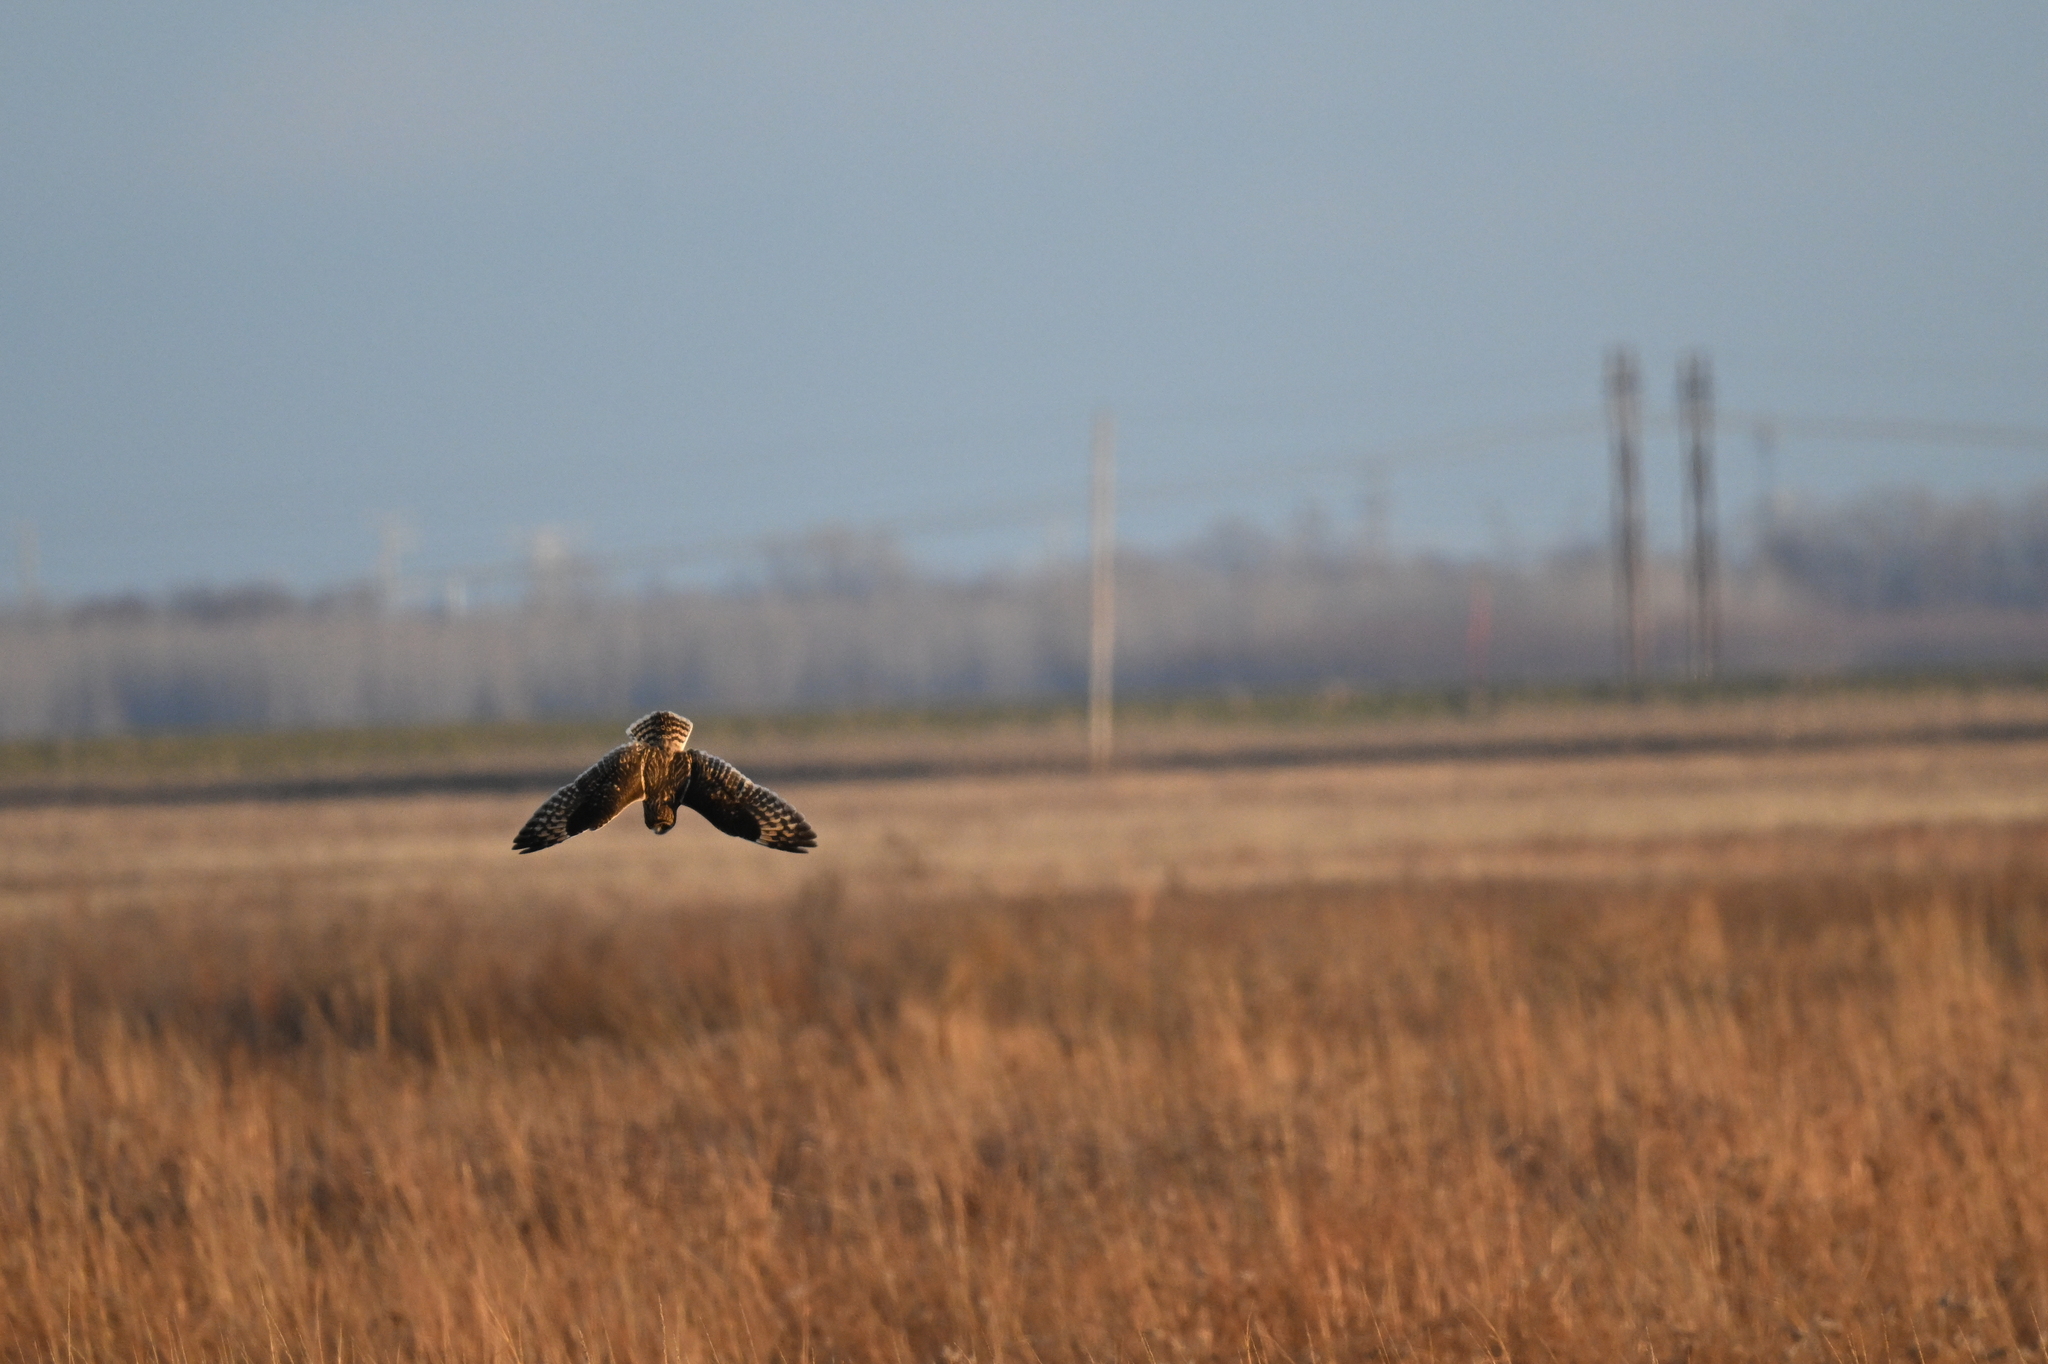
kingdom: Animalia
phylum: Chordata
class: Aves
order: Strigiformes
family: Strigidae
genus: Asio
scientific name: Asio flammeus
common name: Short-eared owl
